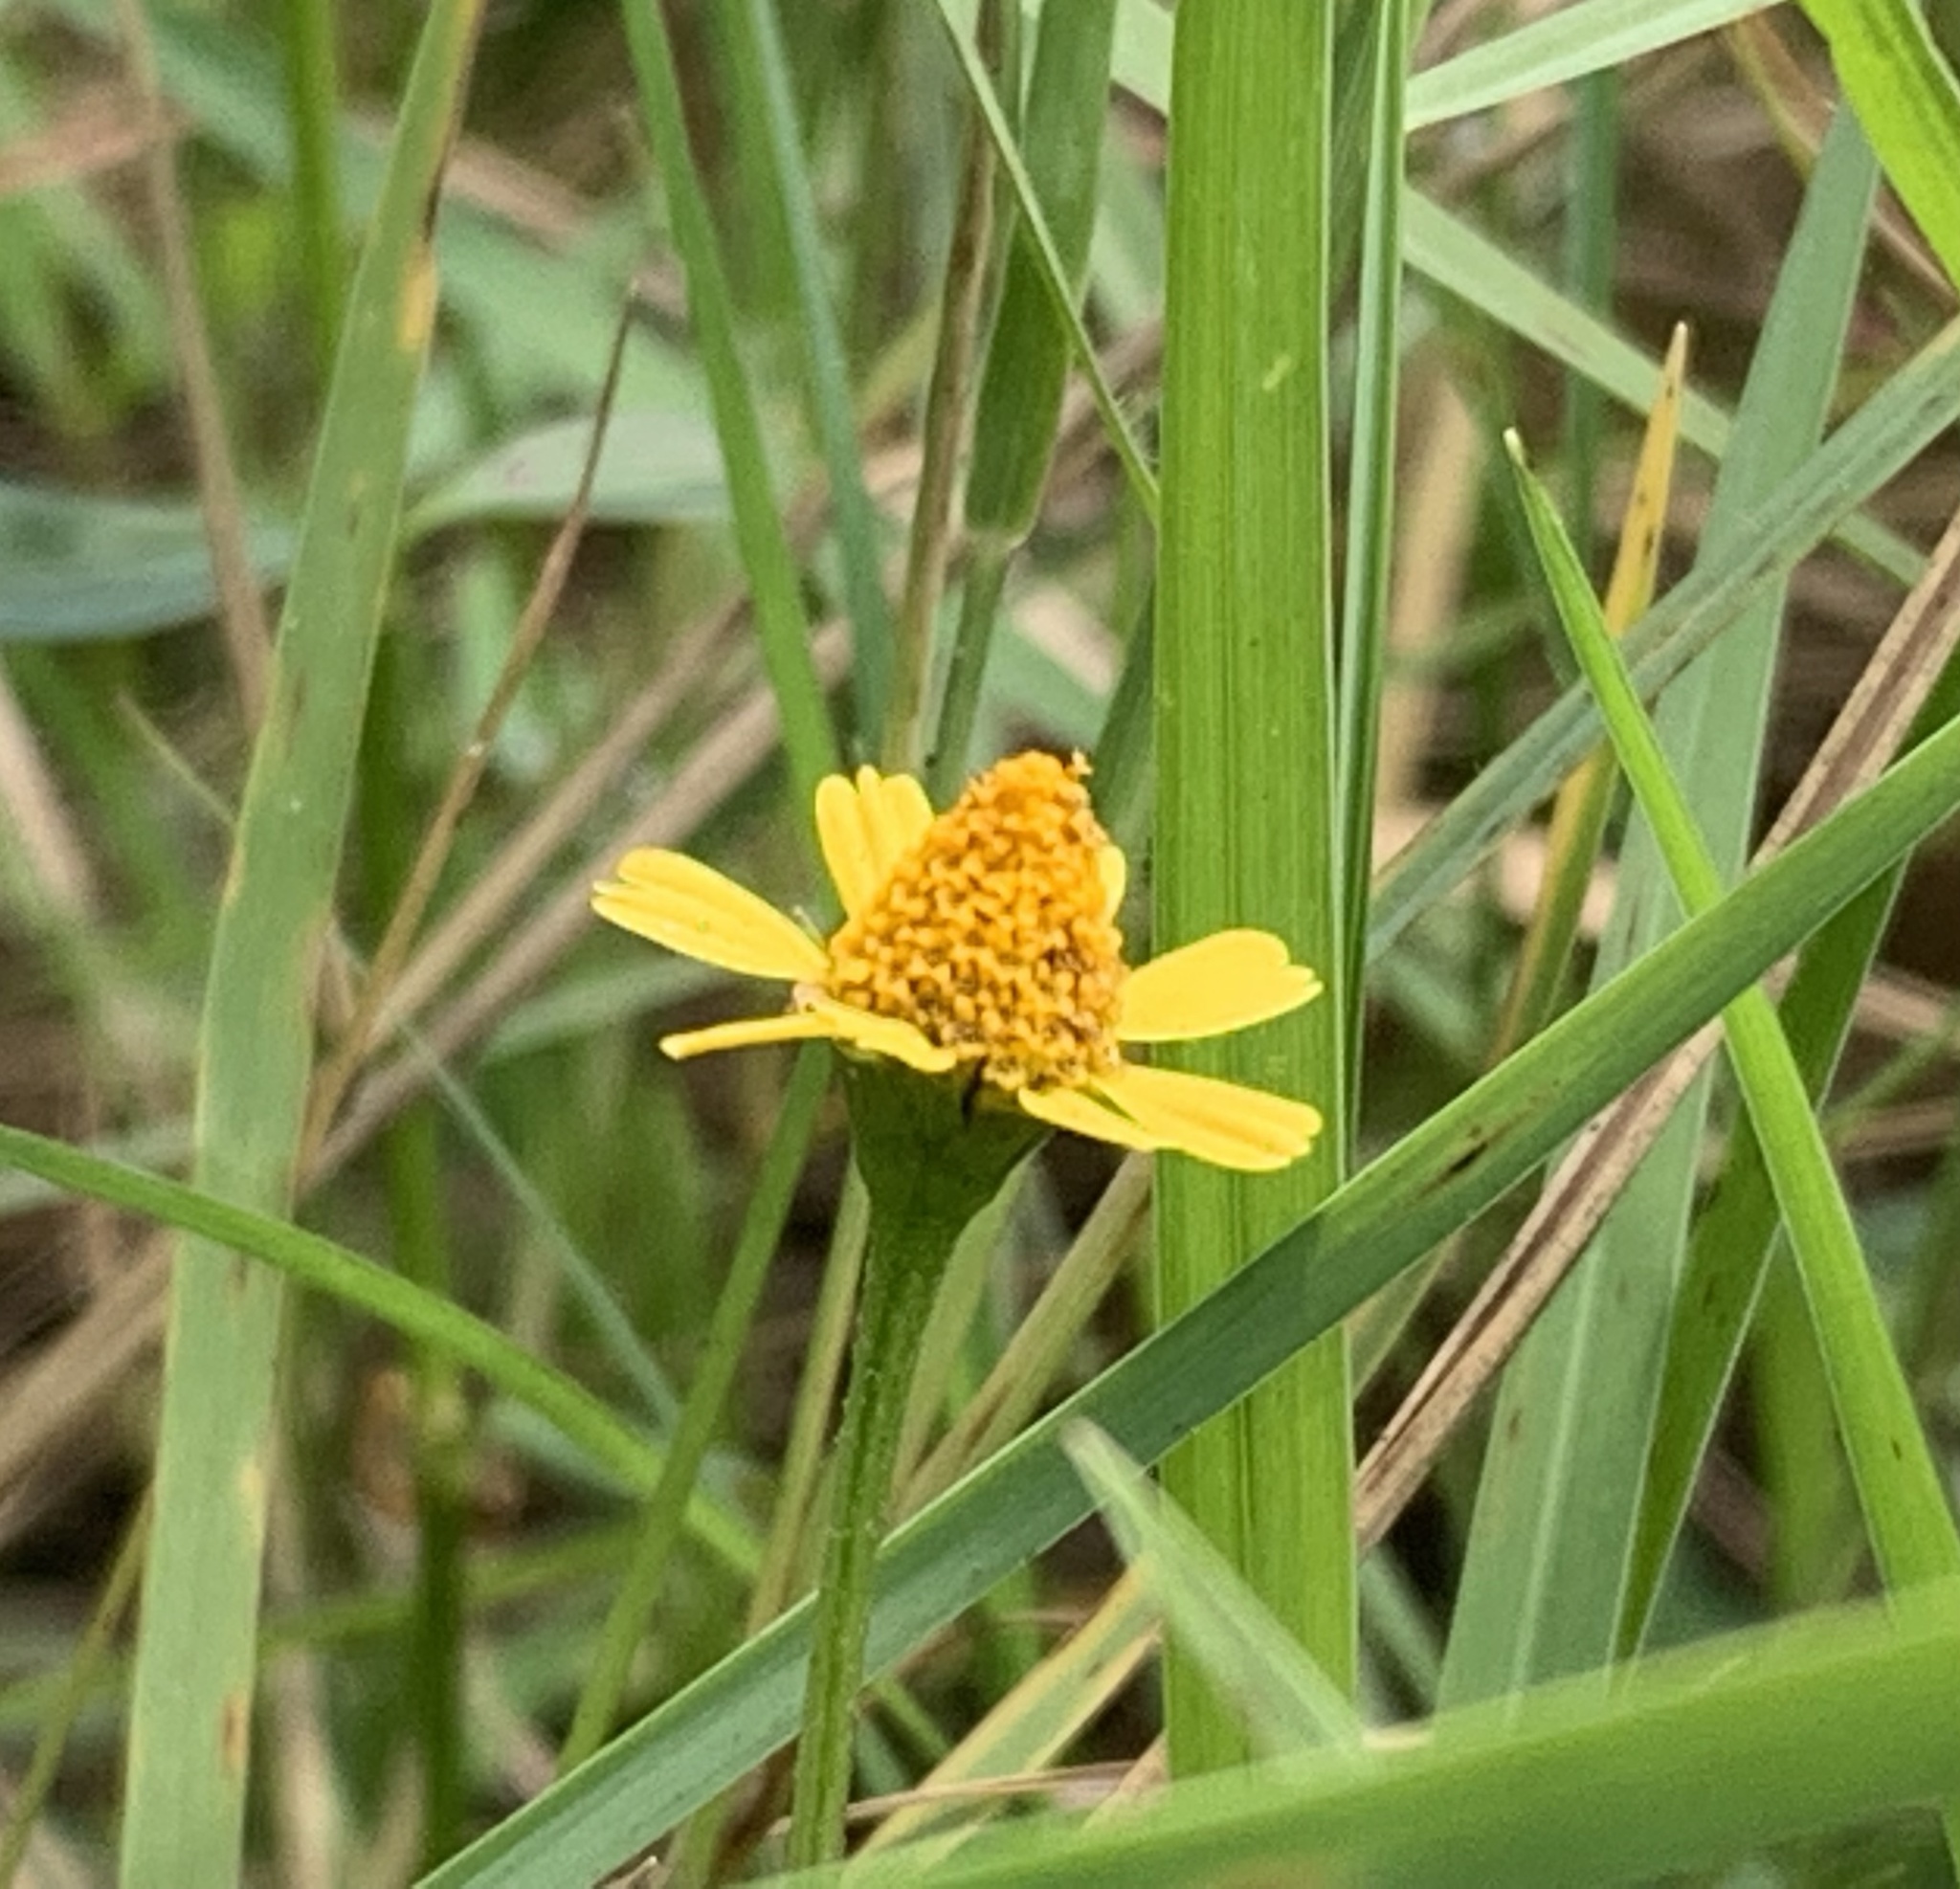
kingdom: Plantae
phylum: Tracheophyta
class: Magnoliopsida
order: Asterales
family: Asteraceae
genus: Acmella
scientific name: Acmella repens
